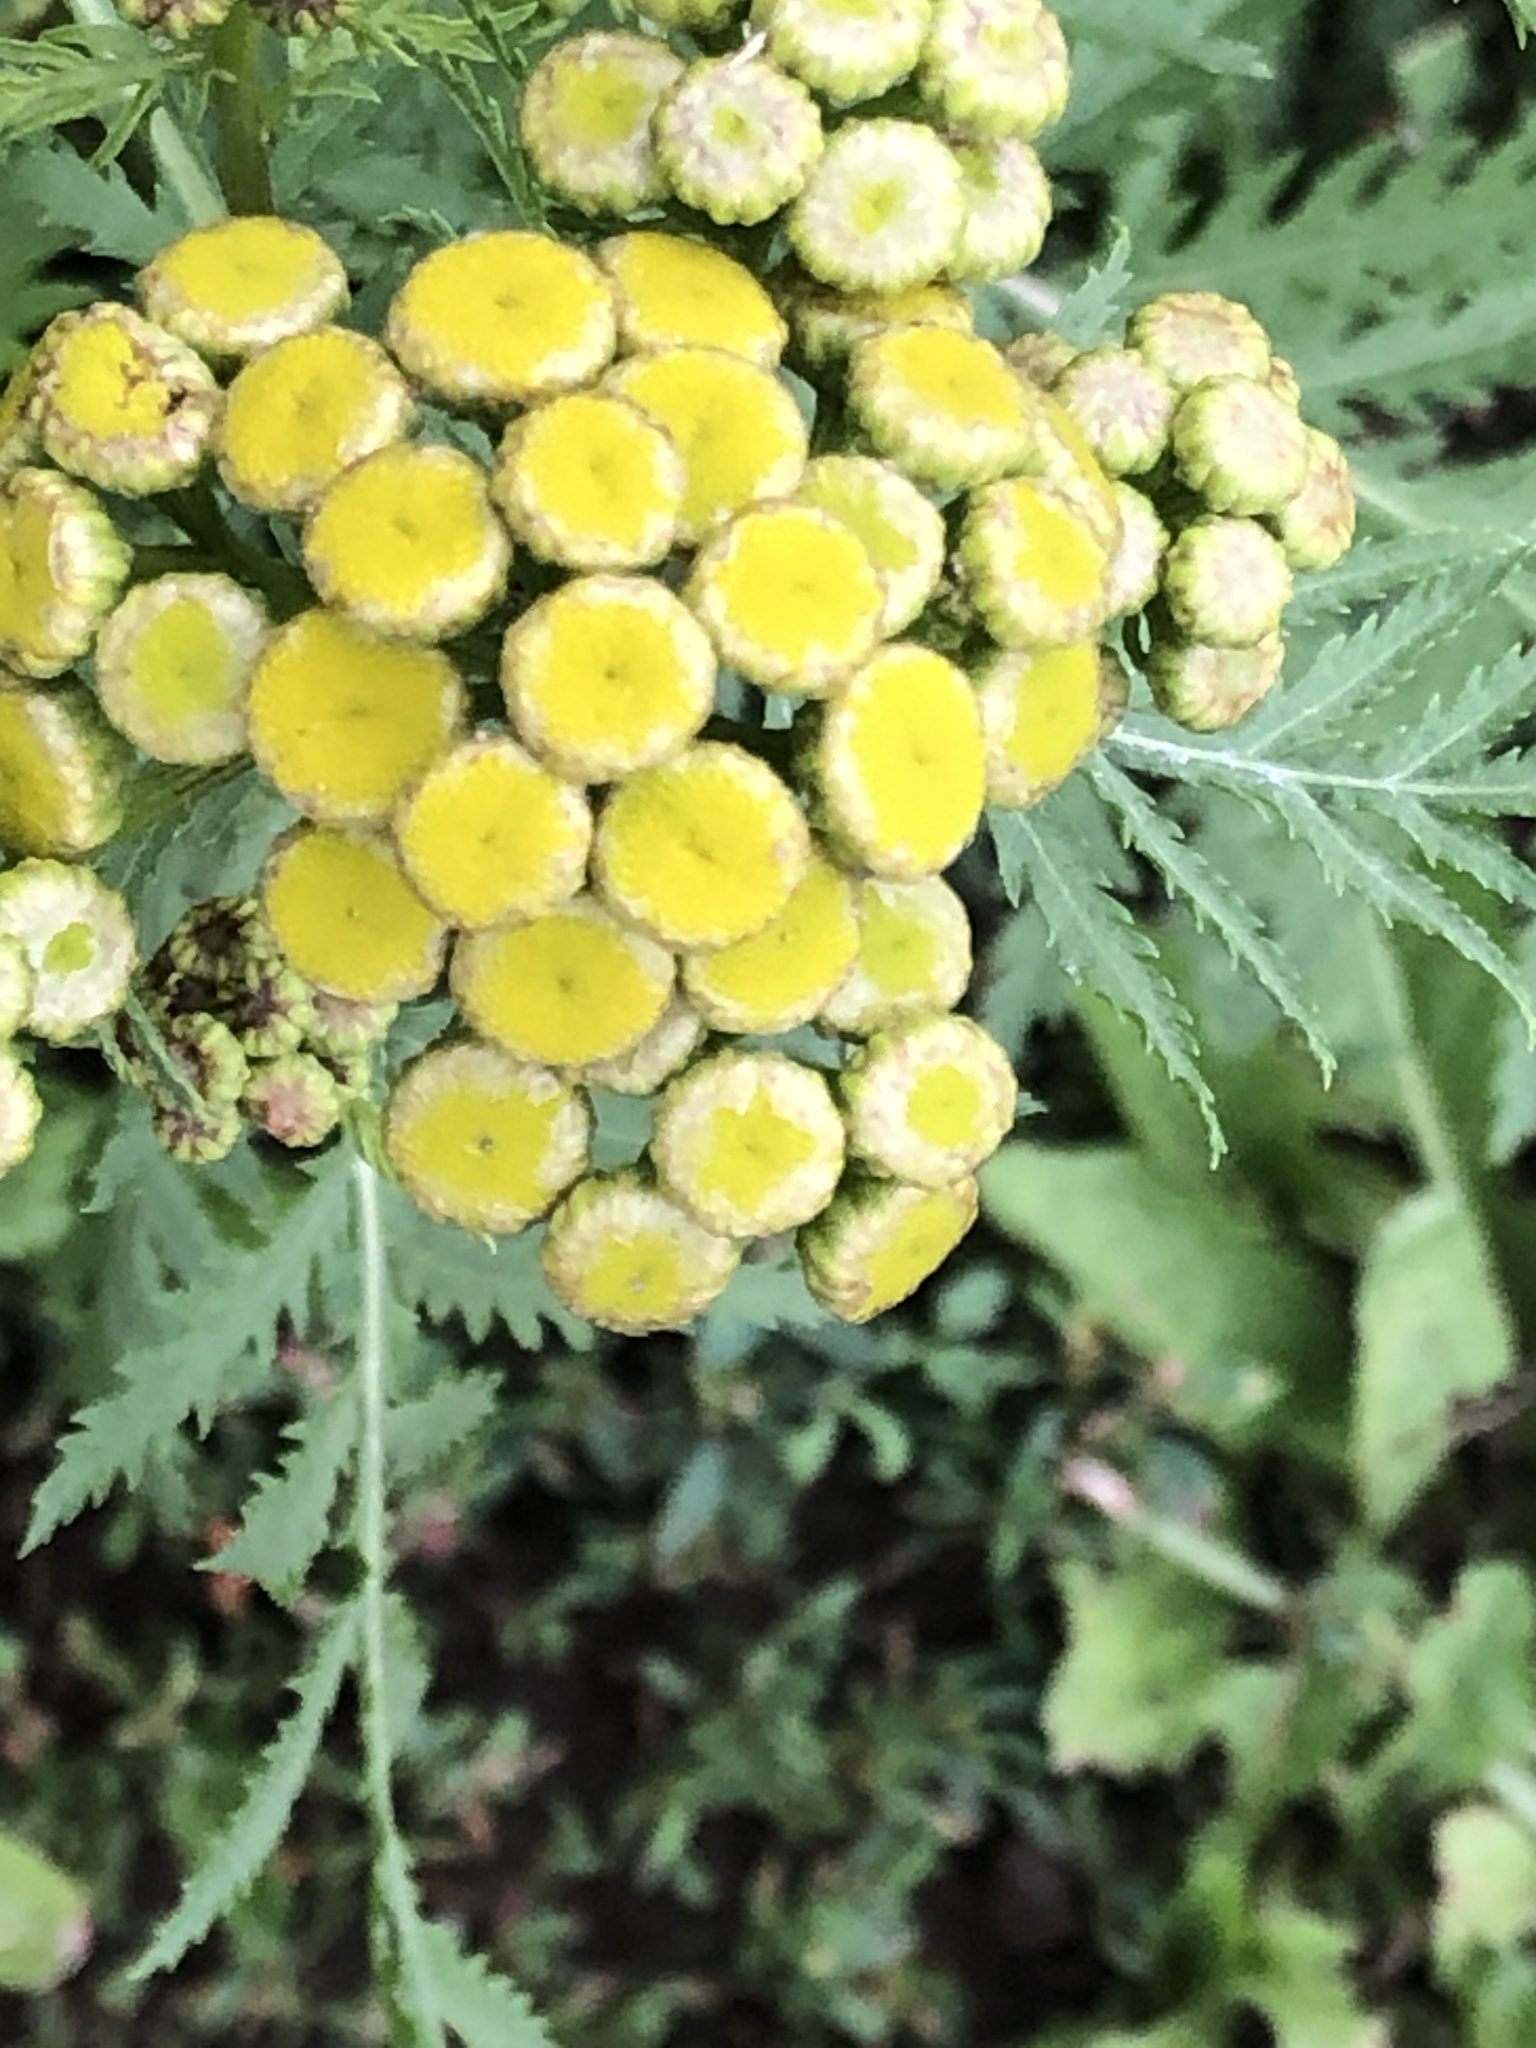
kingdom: Plantae
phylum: Tracheophyta
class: Magnoliopsida
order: Asterales
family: Asteraceae
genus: Tanacetum
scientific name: Tanacetum vulgare
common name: Common tansy
